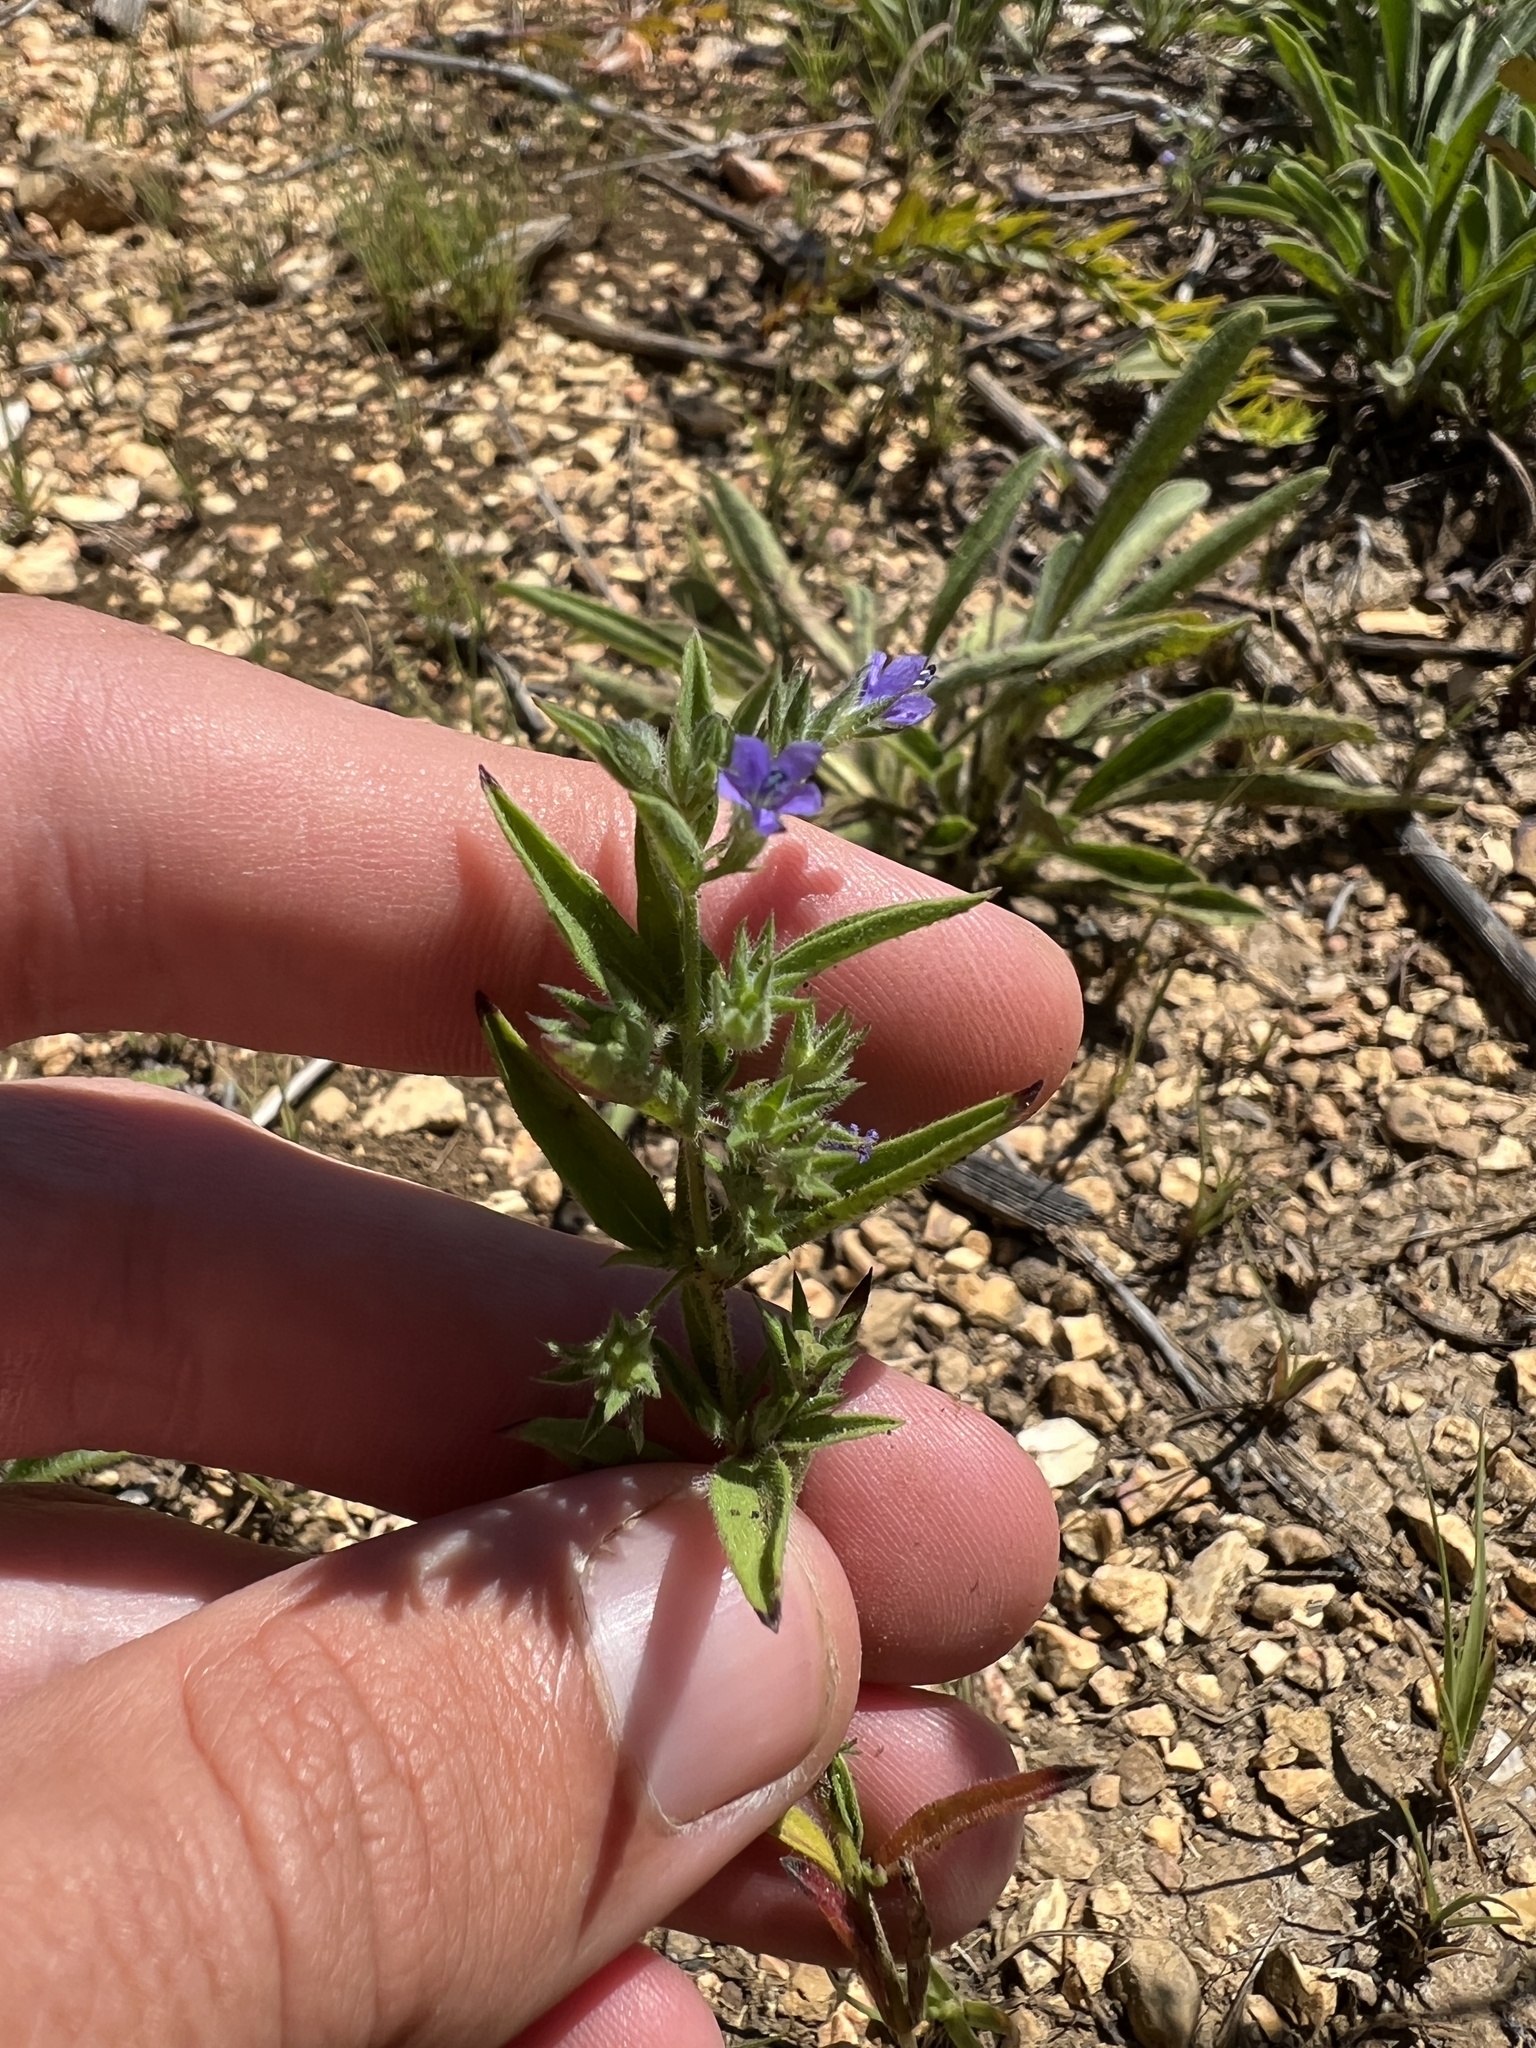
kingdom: Plantae
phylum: Tracheophyta
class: Magnoliopsida
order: Lamiales
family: Lamiaceae
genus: Trichostema
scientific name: Trichostema brachiatum
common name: False pennyroyal
